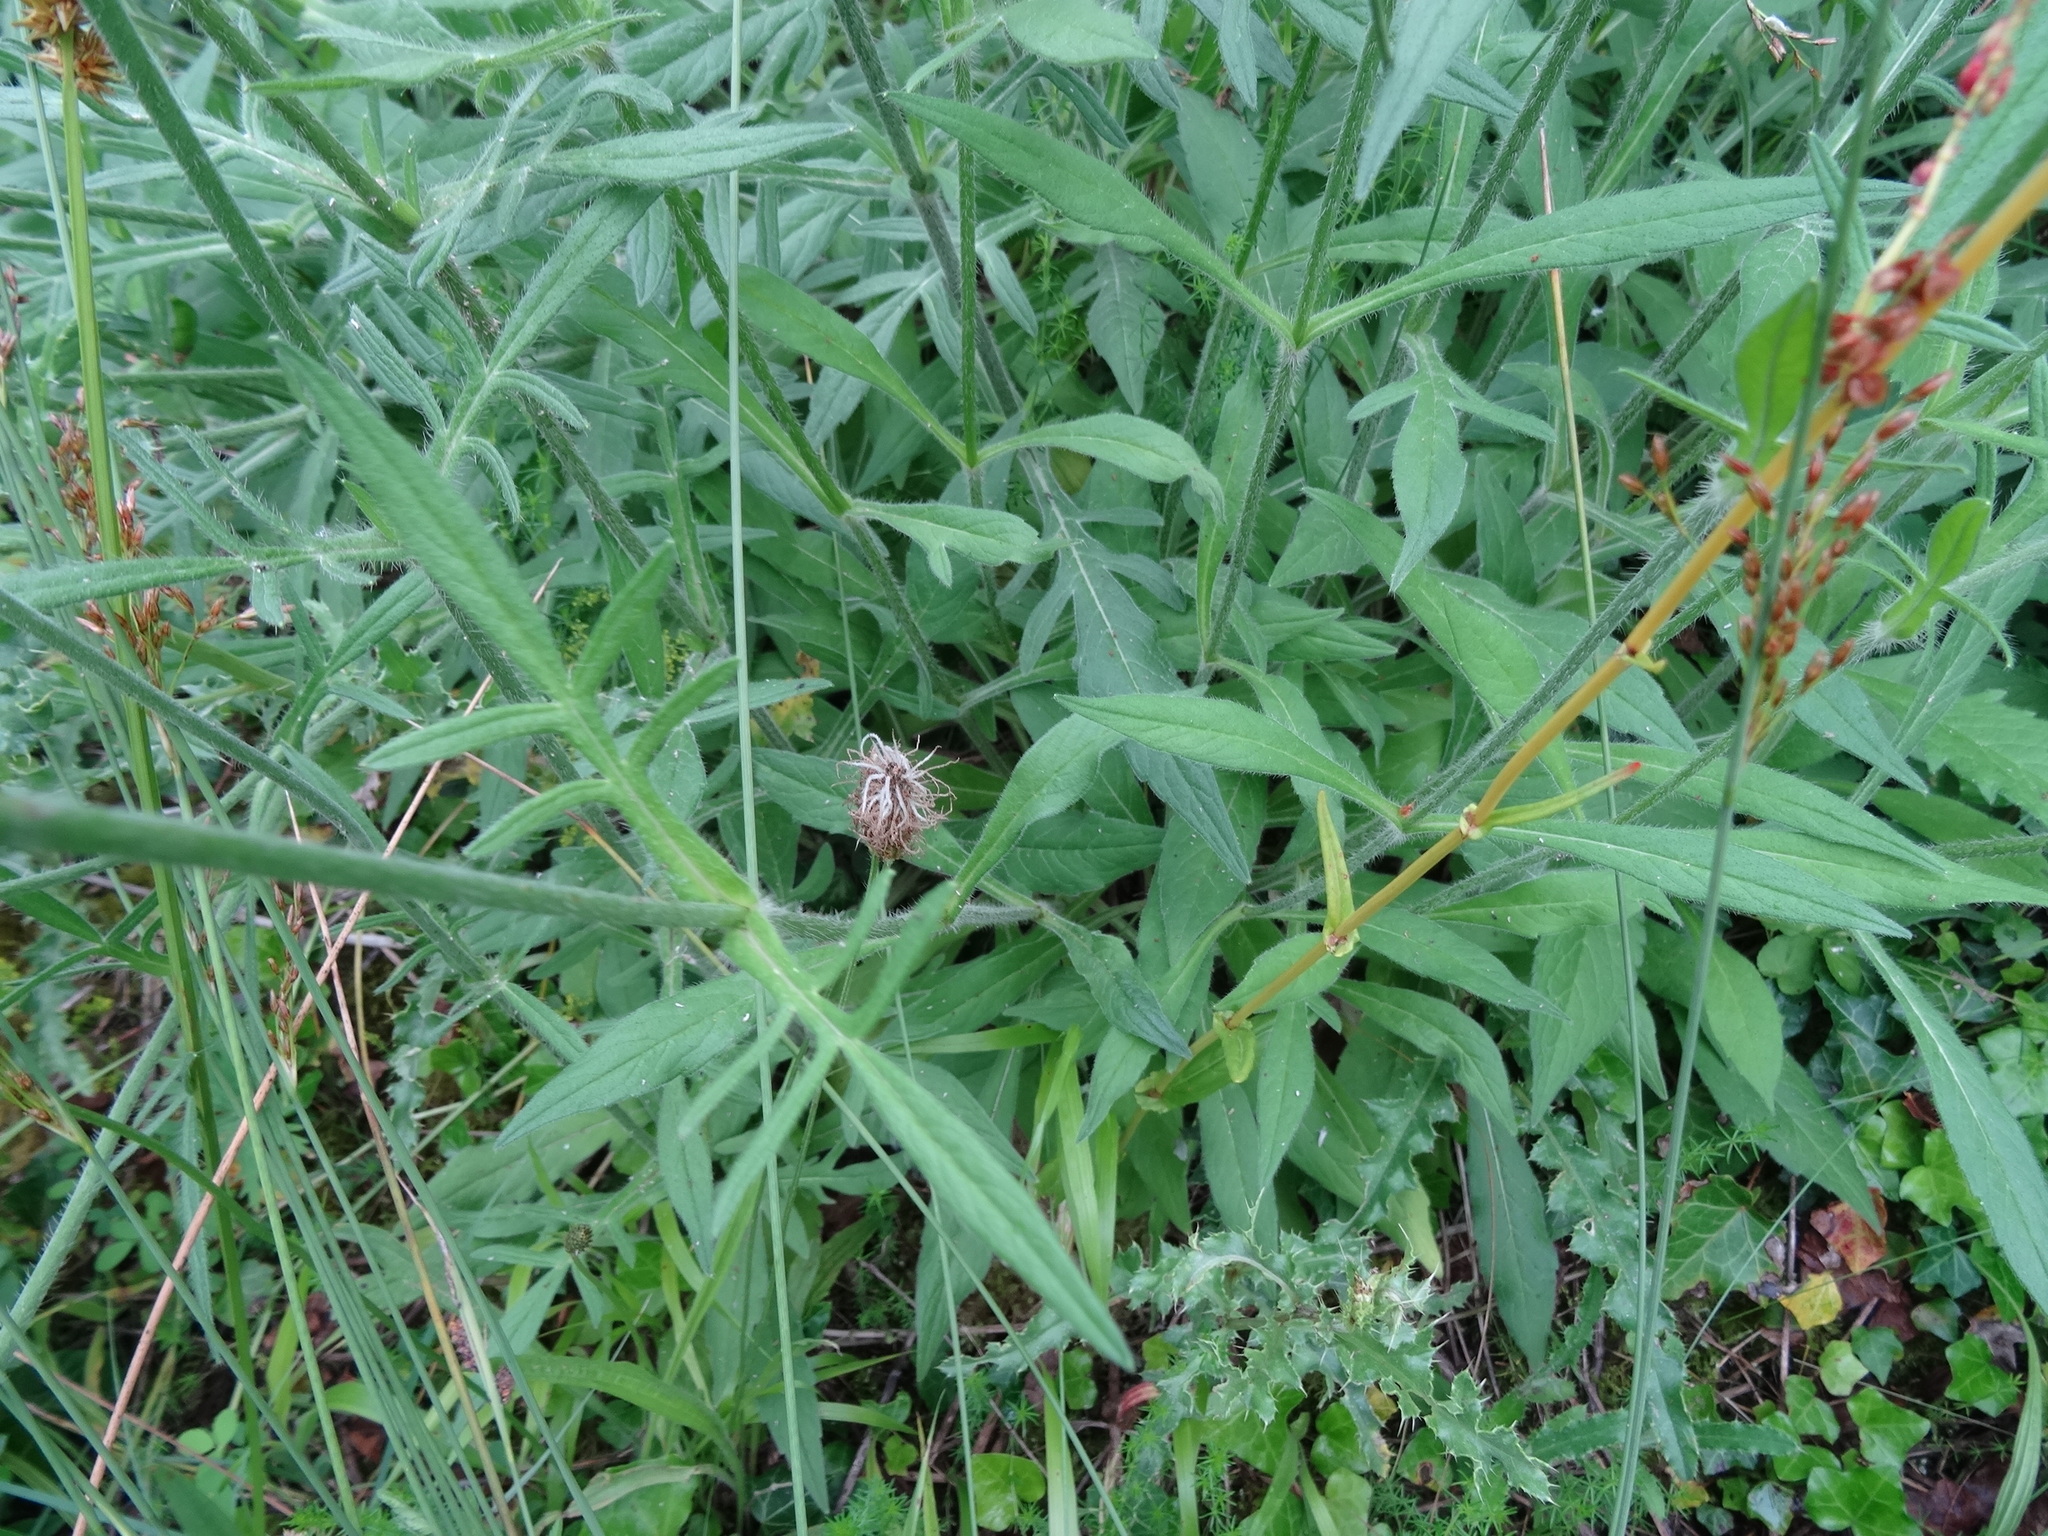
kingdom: Plantae
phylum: Tracheophyta
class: Magnoliopsida
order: Dipsacales
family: Caprifoliaceae
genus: Knautia
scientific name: Knautia arvensis
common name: Field scabiosa
